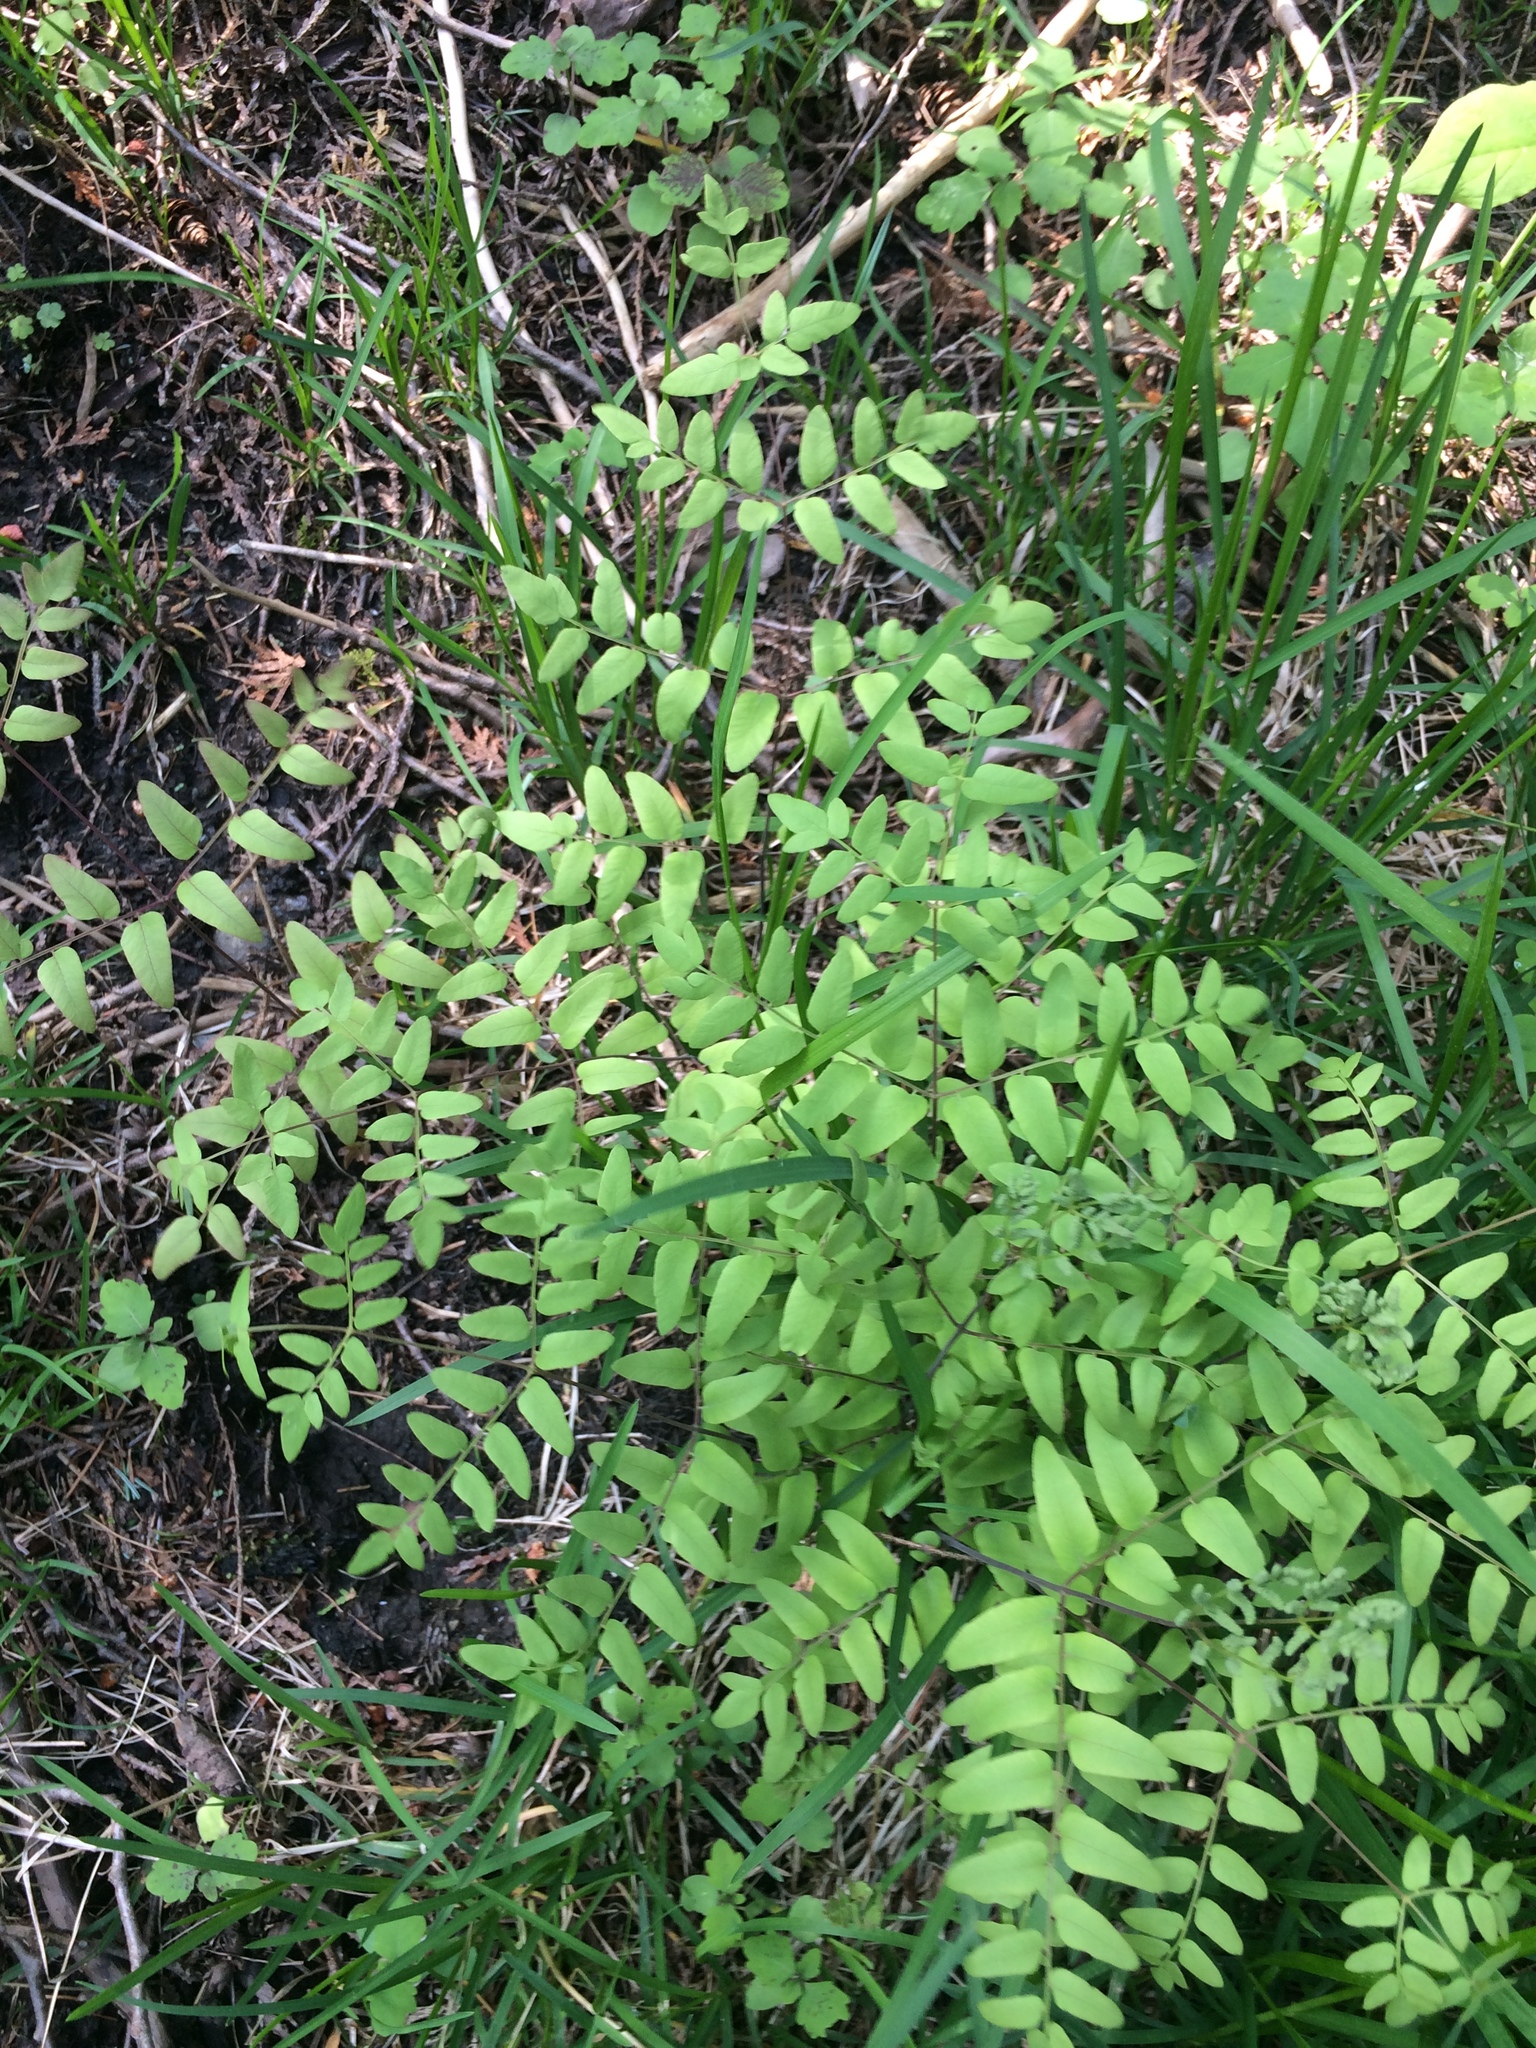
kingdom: Plantae
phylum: Tracheophyta
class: Polypodiopsida
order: Osmundales
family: Osmundaceae
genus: Osmunda
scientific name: Osmunda spectabilis
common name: American royal fern
